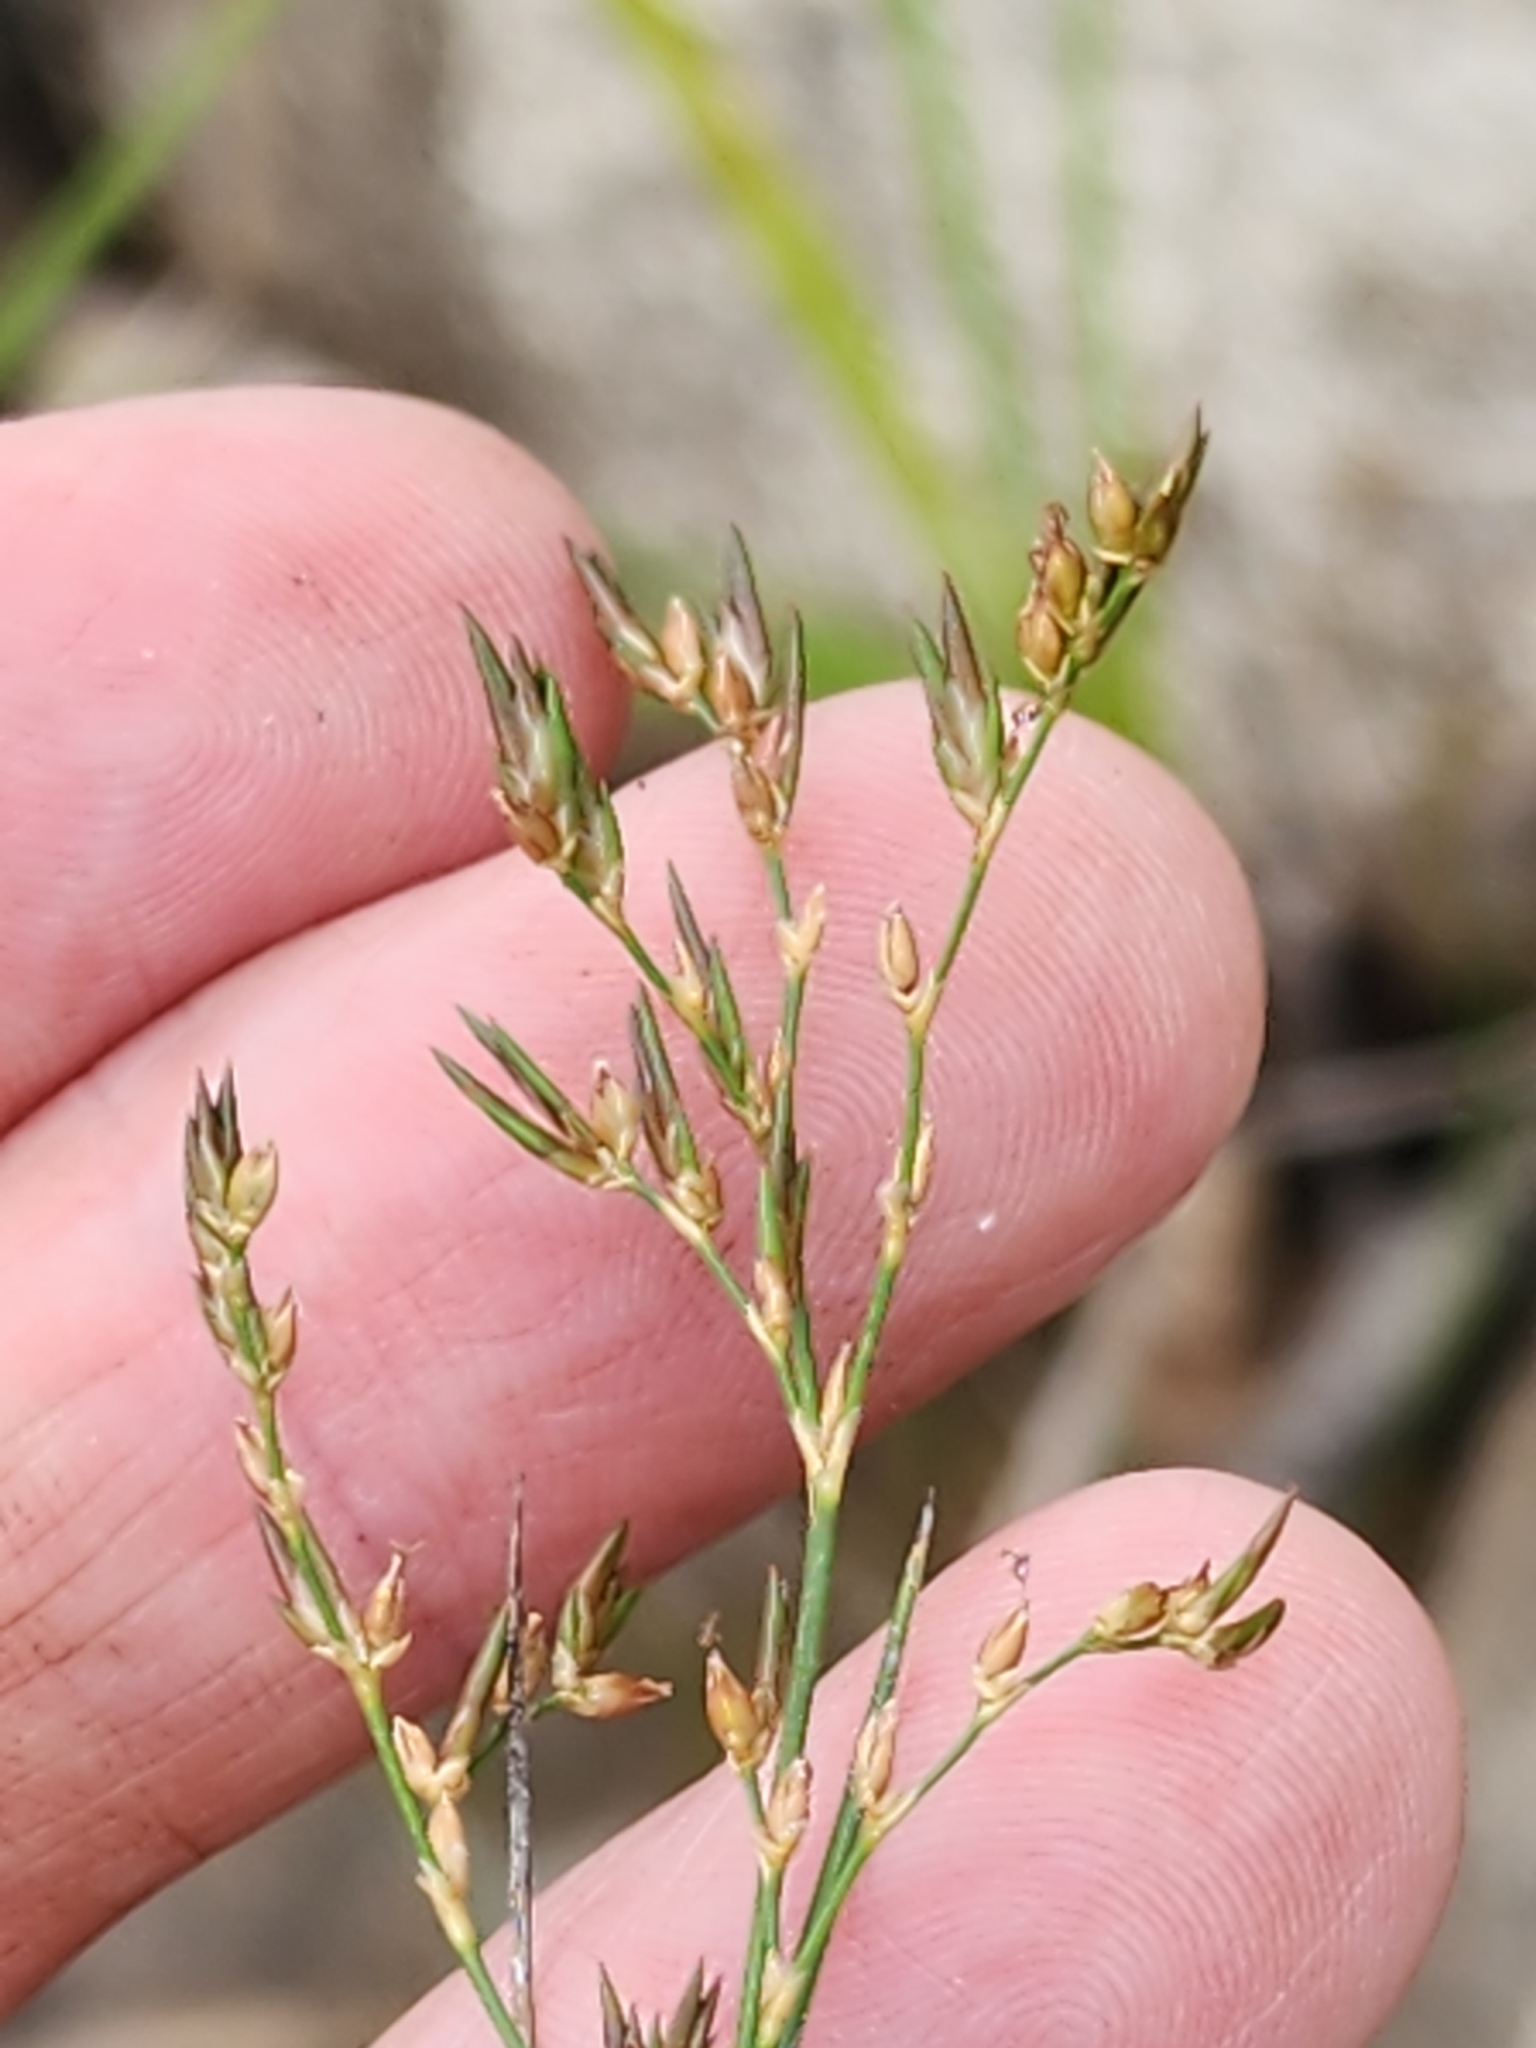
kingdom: Plantae
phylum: Tracheophyta
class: Liliopsida
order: Poales
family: Juncaceae
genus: Juncus
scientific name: Juncus pelocarpus
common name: Brown-fruited rush
